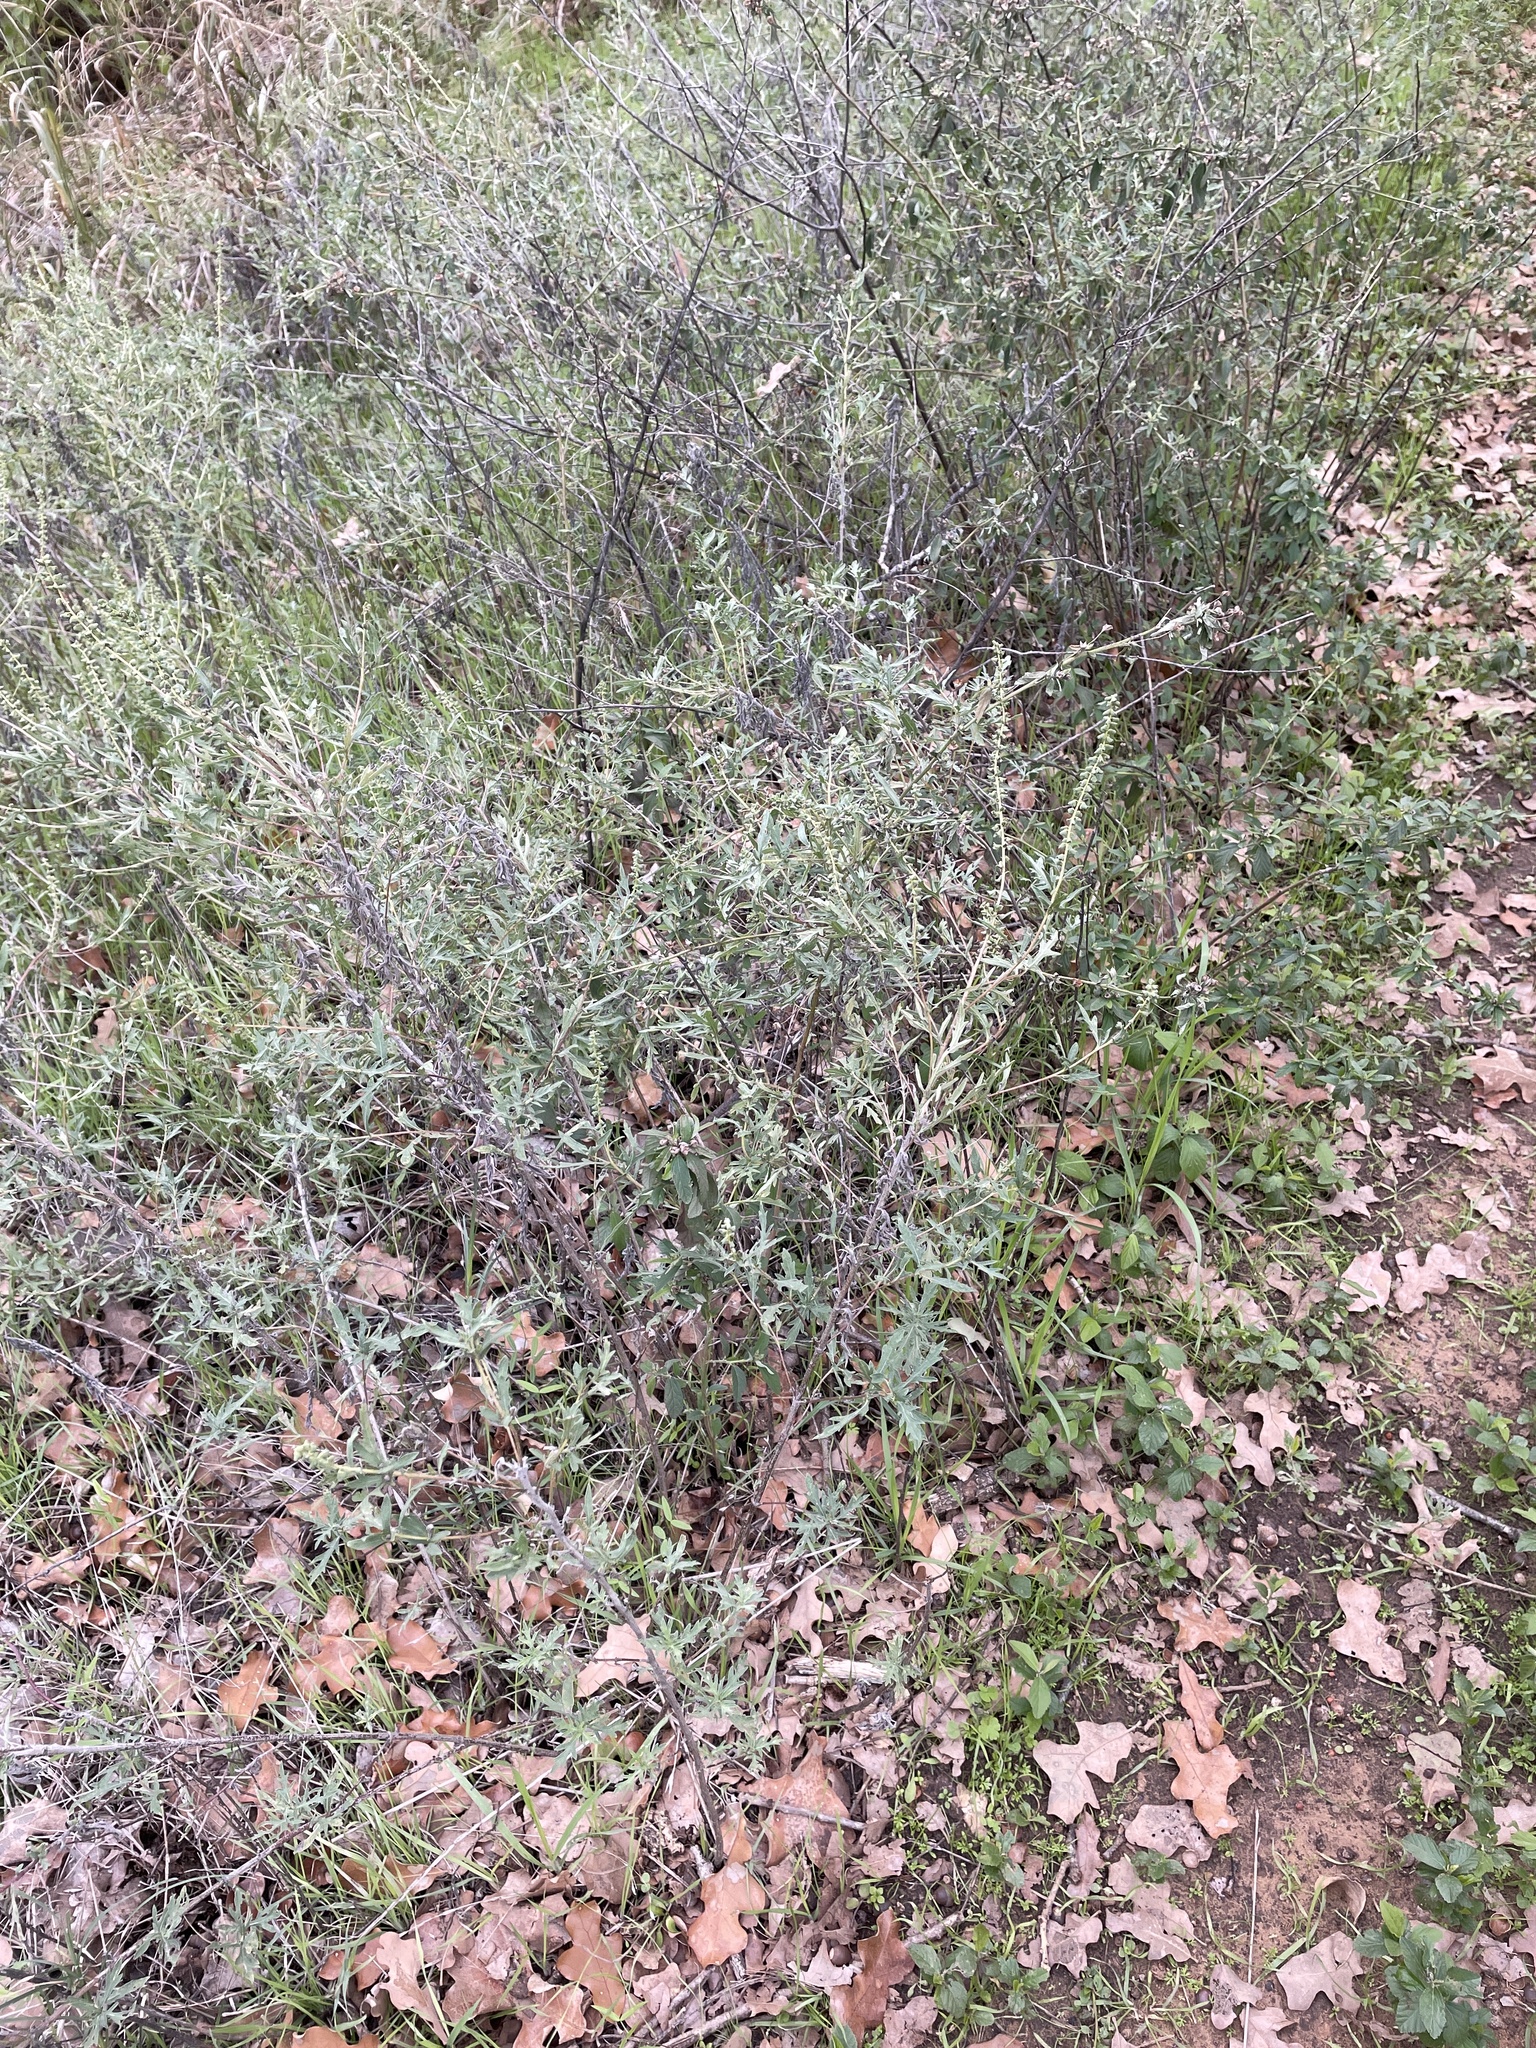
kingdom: Plantae
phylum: Tracheophyta
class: Magnoliopsida
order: Asterales
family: Asteraceae
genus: Ambrosia
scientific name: Ambrosia psilostachya
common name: Perennial ragweed
